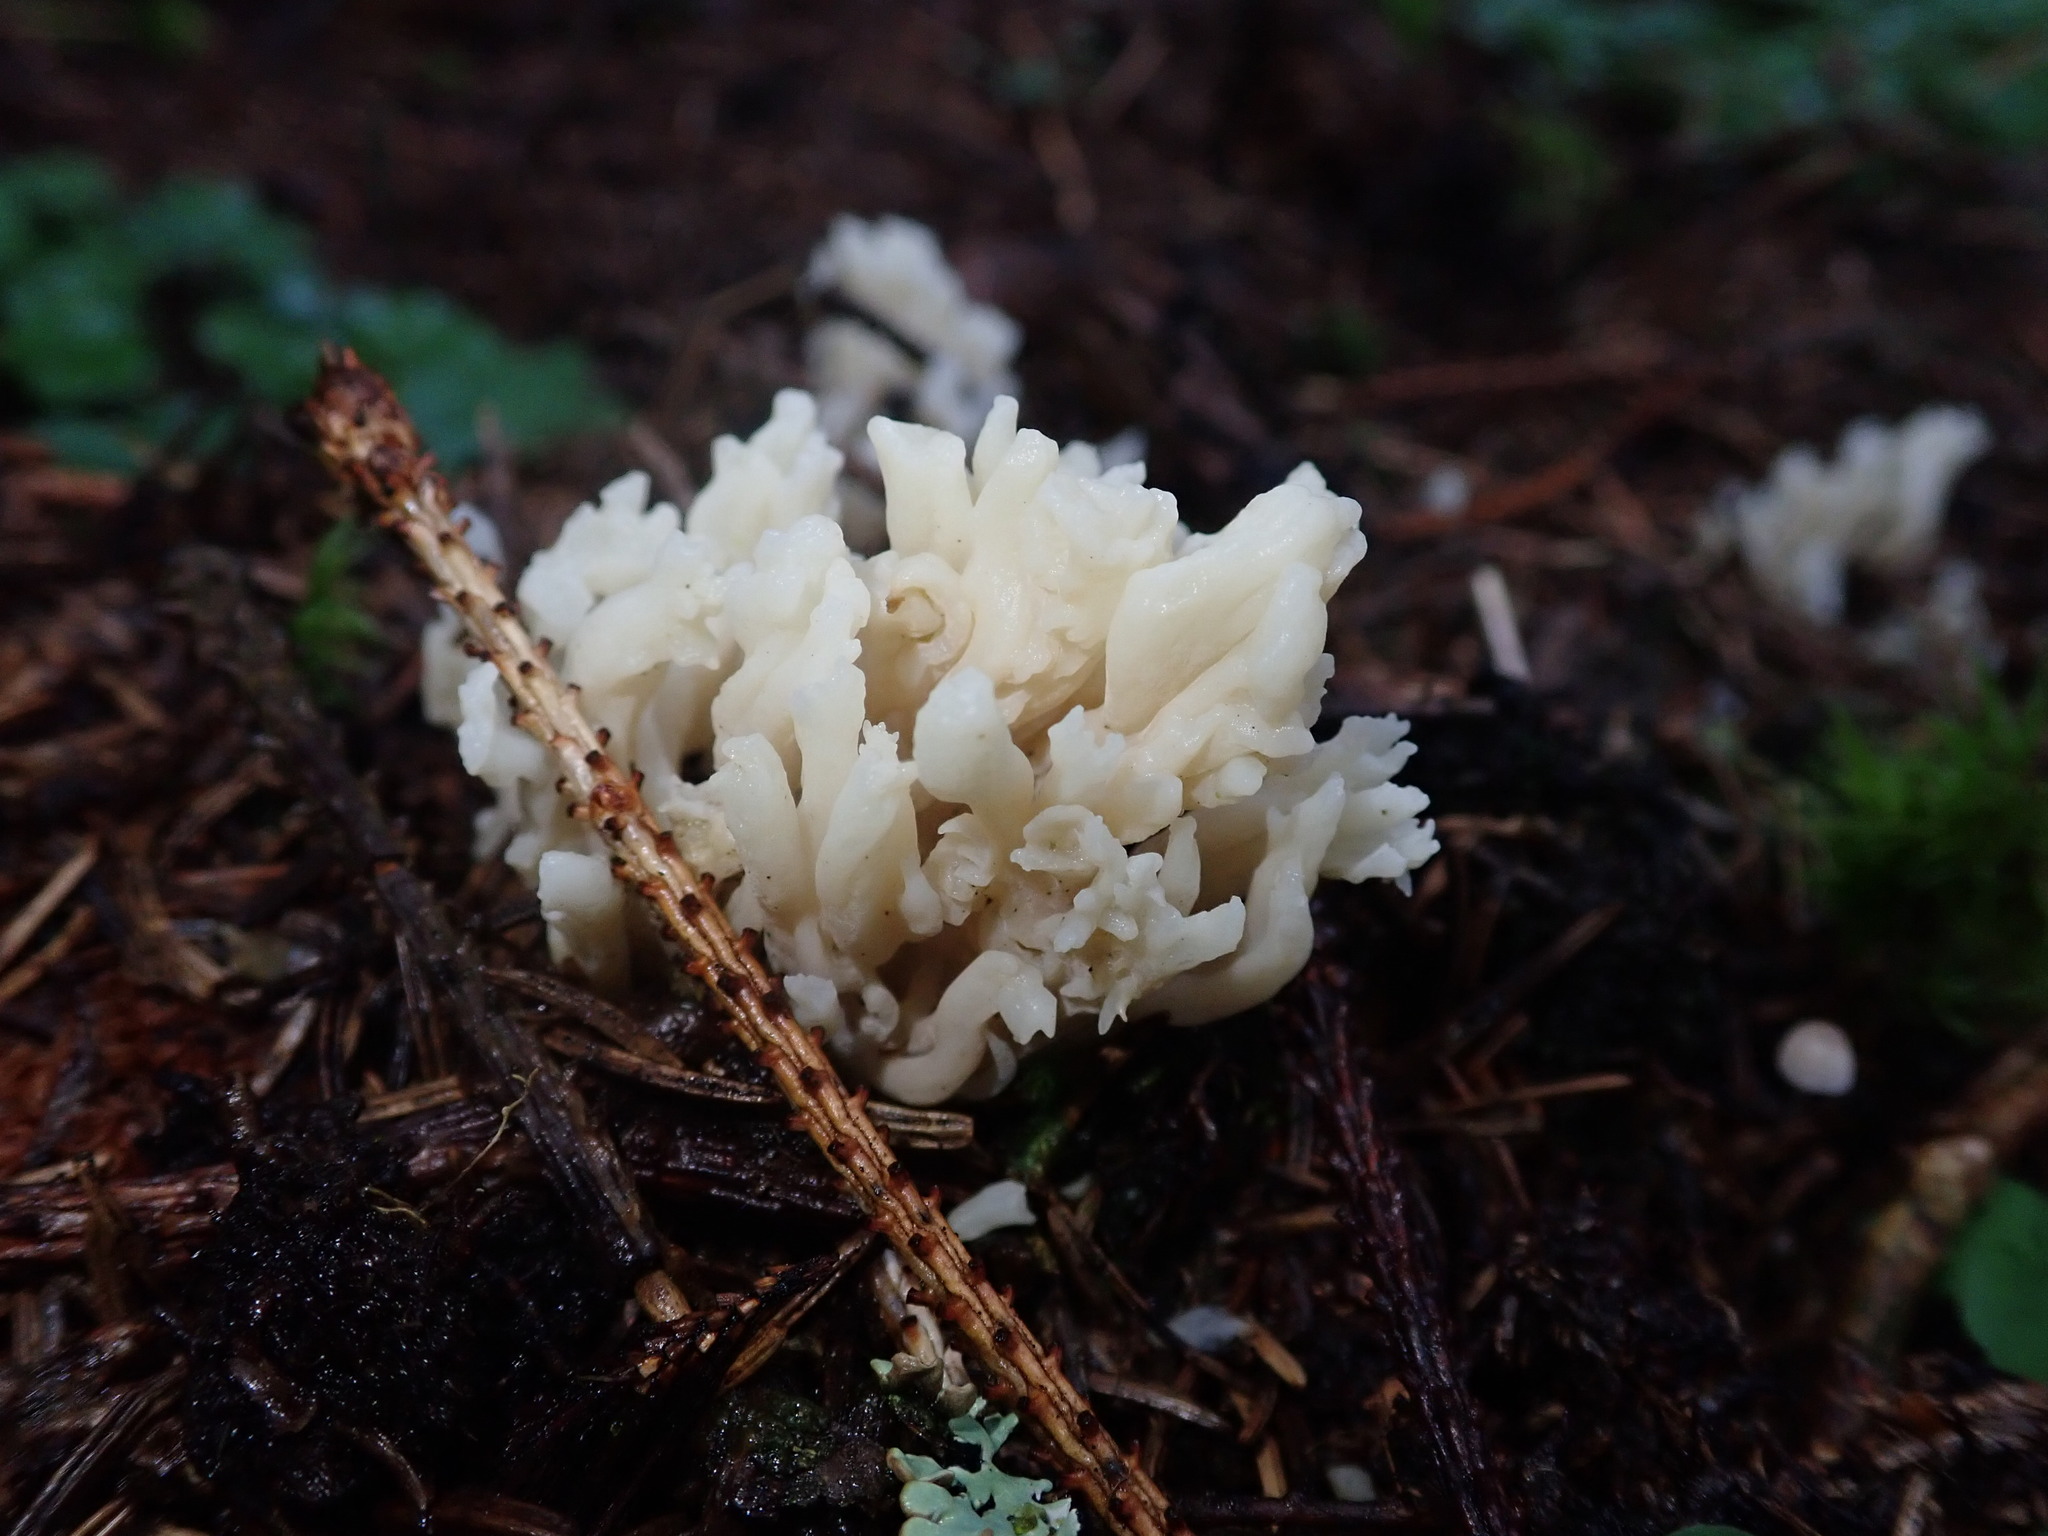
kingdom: Fungi
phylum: Basidiomycota
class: Agaricomycetes
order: Cantharellales
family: Hydnaceae
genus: Clavulina
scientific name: Clavulina rugosa
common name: Wrinkled club
